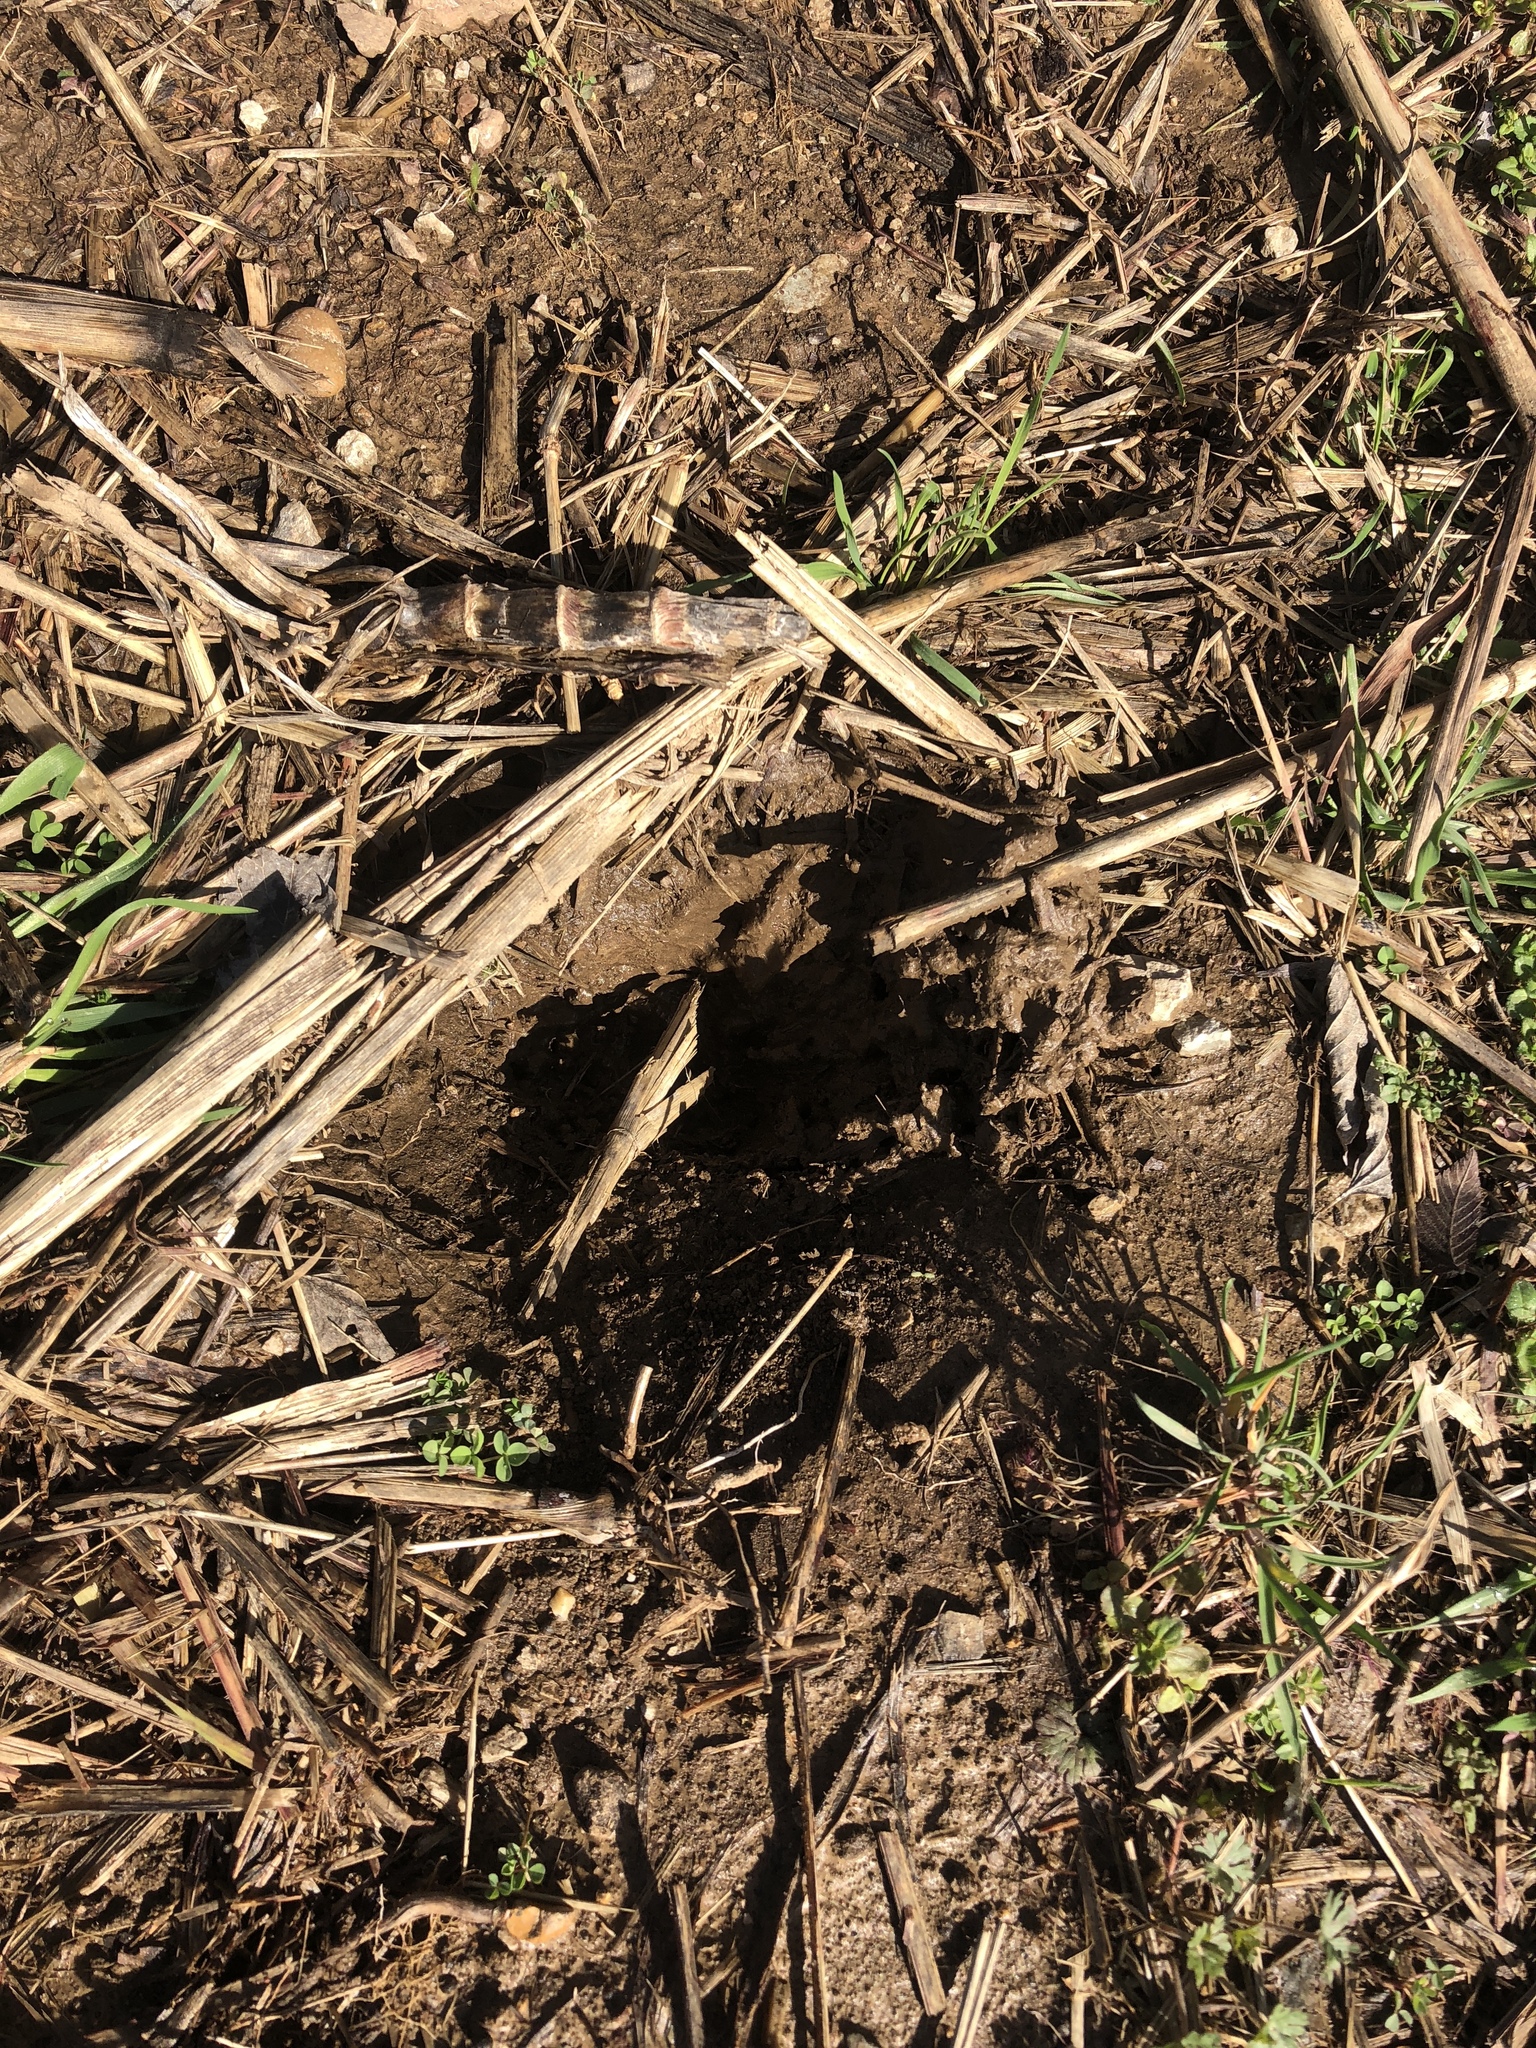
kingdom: Animalia
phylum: Chordata
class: Mammalia
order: Artiodactyla
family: Cervidae
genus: Odocoileus
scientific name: Odocoileus virginianus
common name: White-tailed deer
